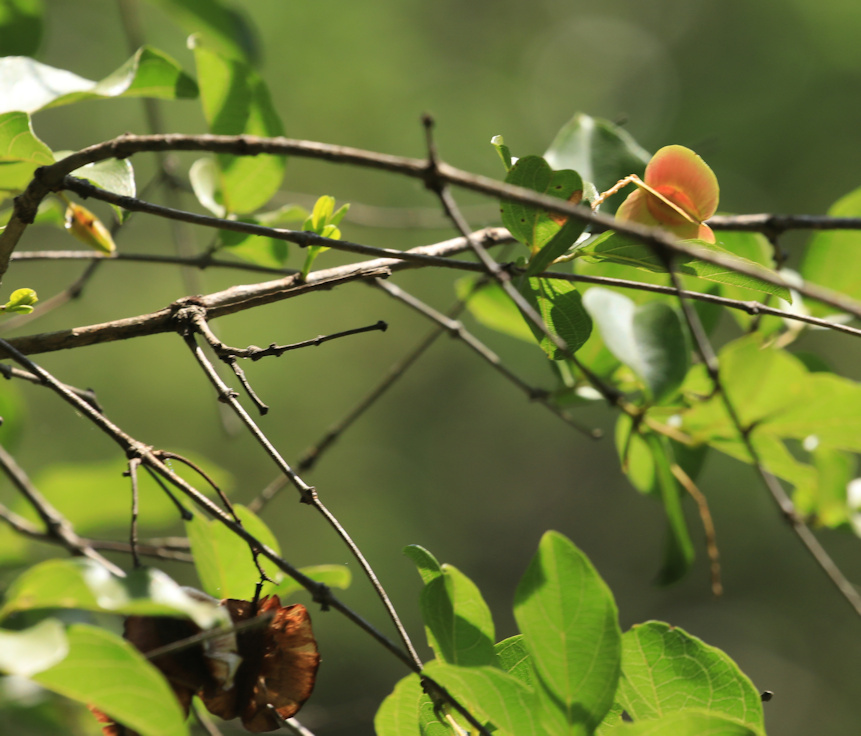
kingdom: Plantae
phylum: Tracheophyta
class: Magnoliopsida
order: Myrtales
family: Combretaceae
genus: Combretum
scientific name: Combretum apiculatum
